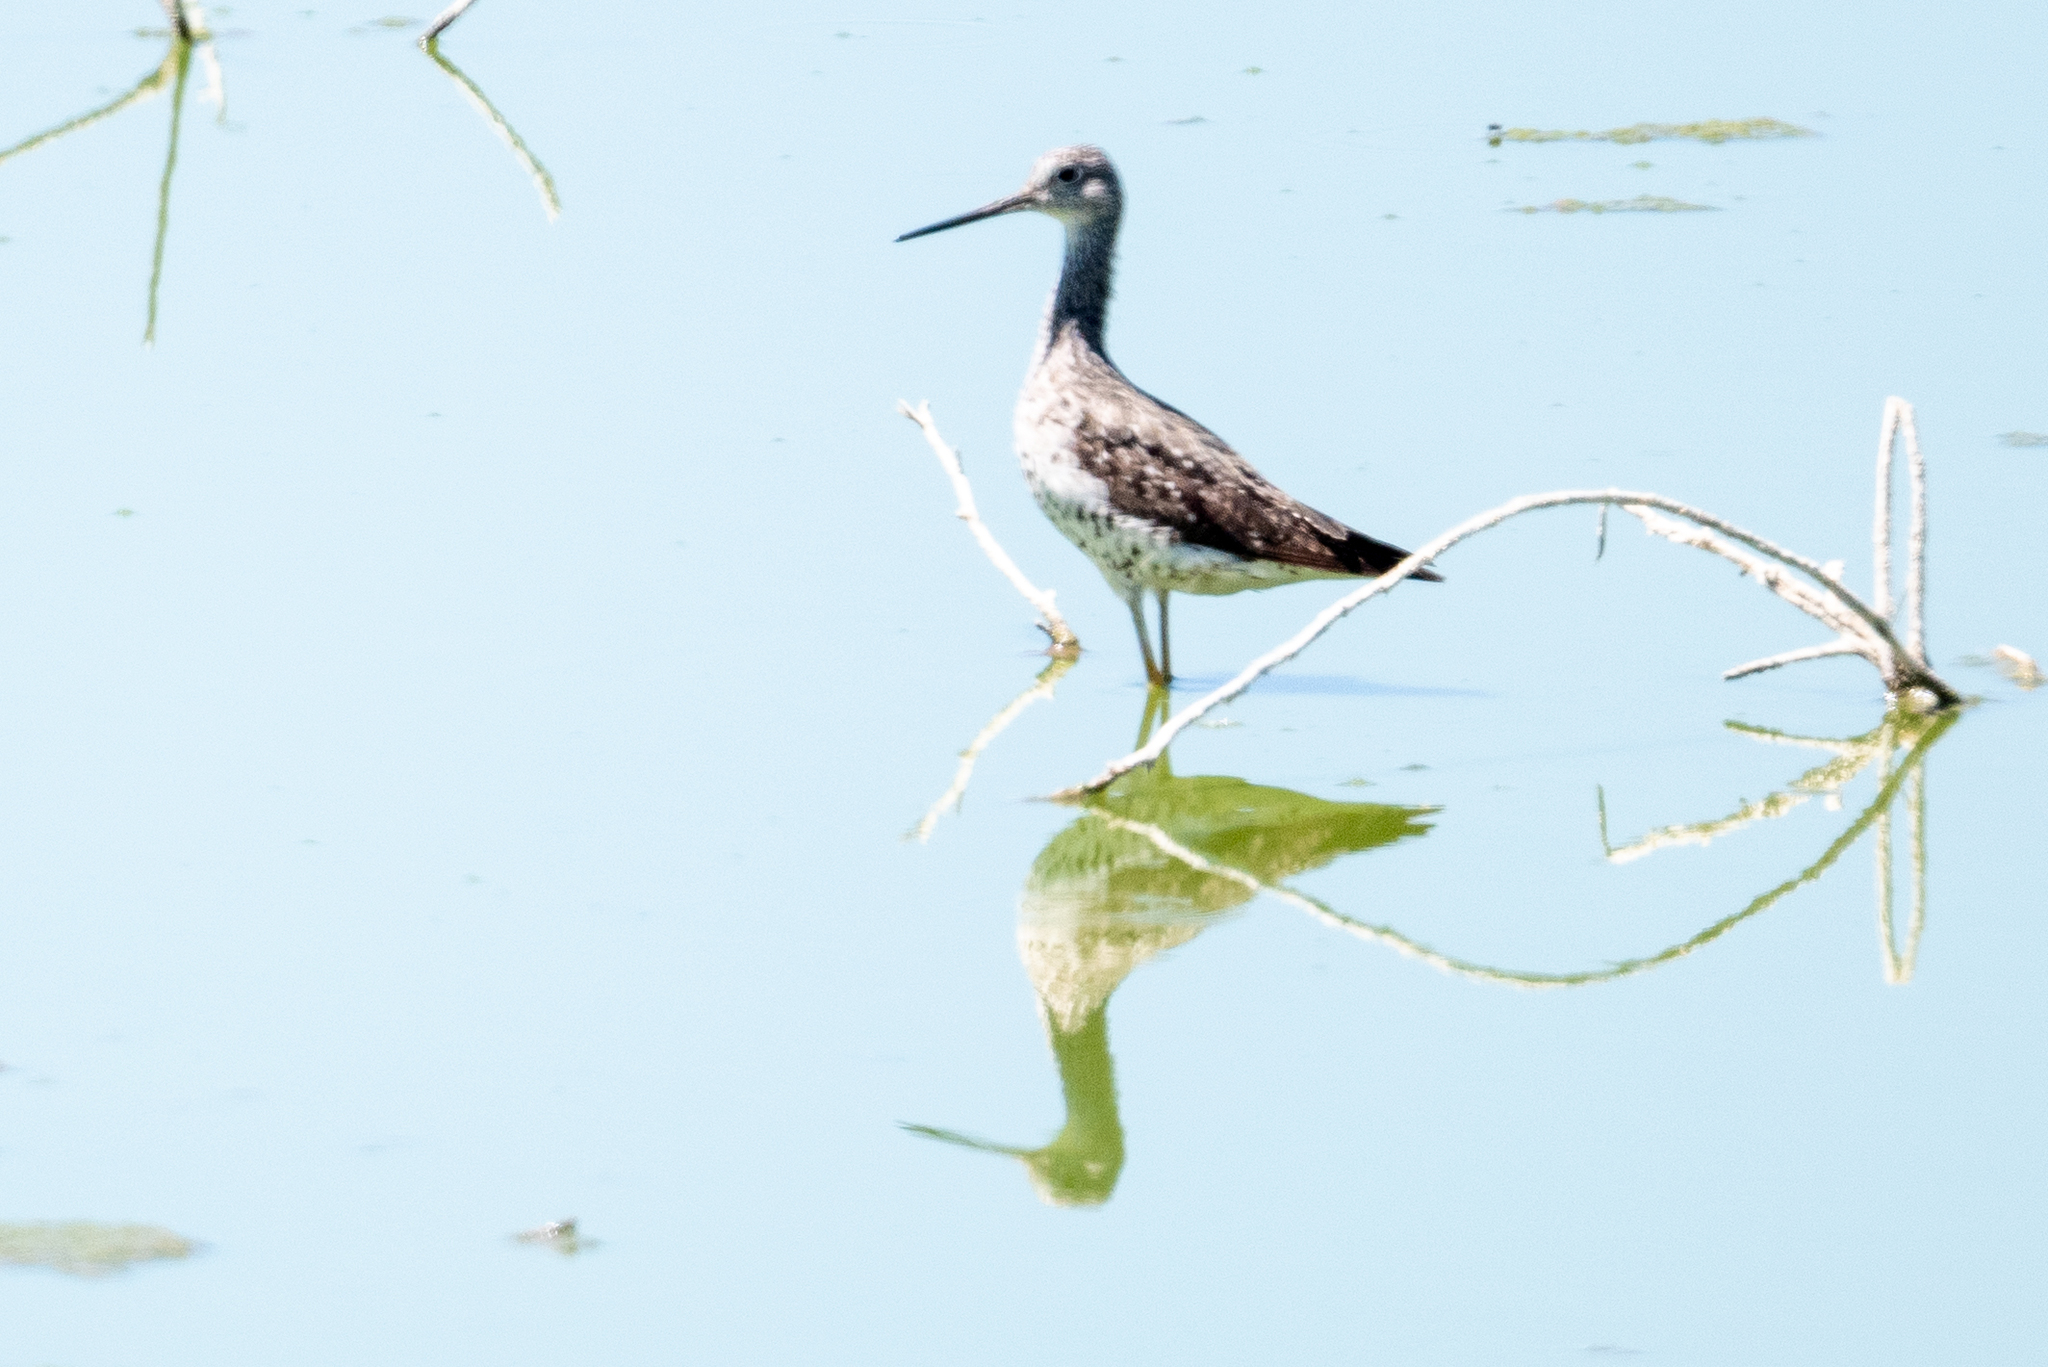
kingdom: Animalia
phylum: Chordata
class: Aves
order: Charadriiformes
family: Scolopacidae
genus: Tringa
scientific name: Tringa melanoleuca
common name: Greater yellowlegs
